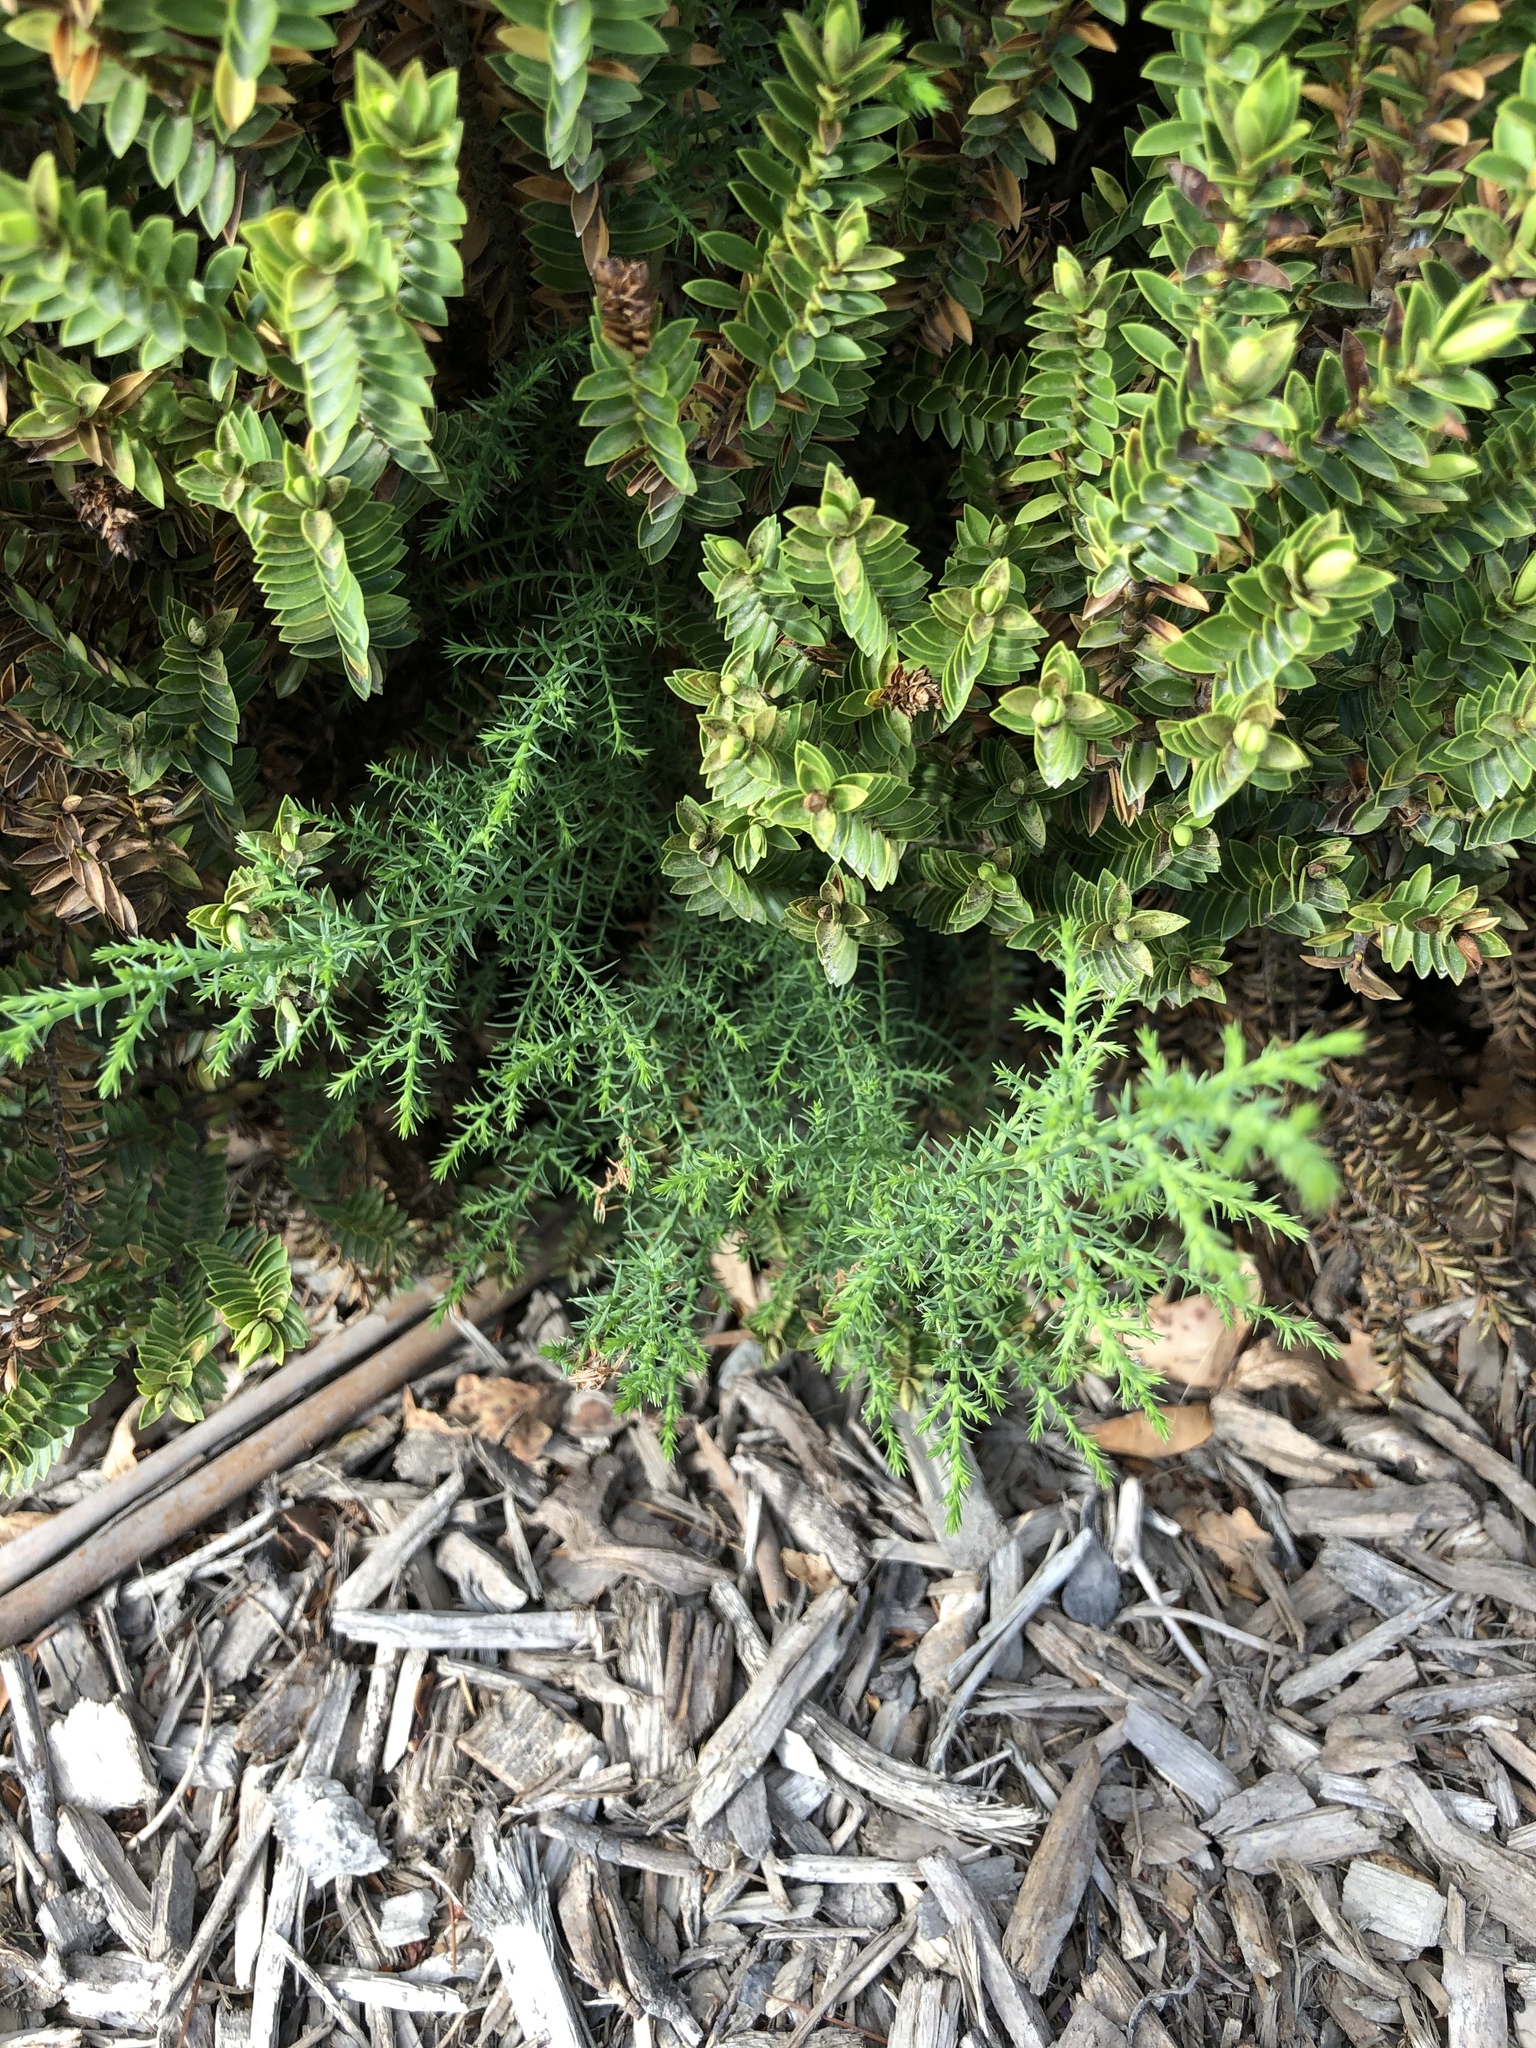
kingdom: Plantae
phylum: Tracheophyta
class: Pinopsida
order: Pinales
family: Cupressaceae
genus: Cupressus
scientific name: Cupressus macrocarpa
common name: Monterey cypress
